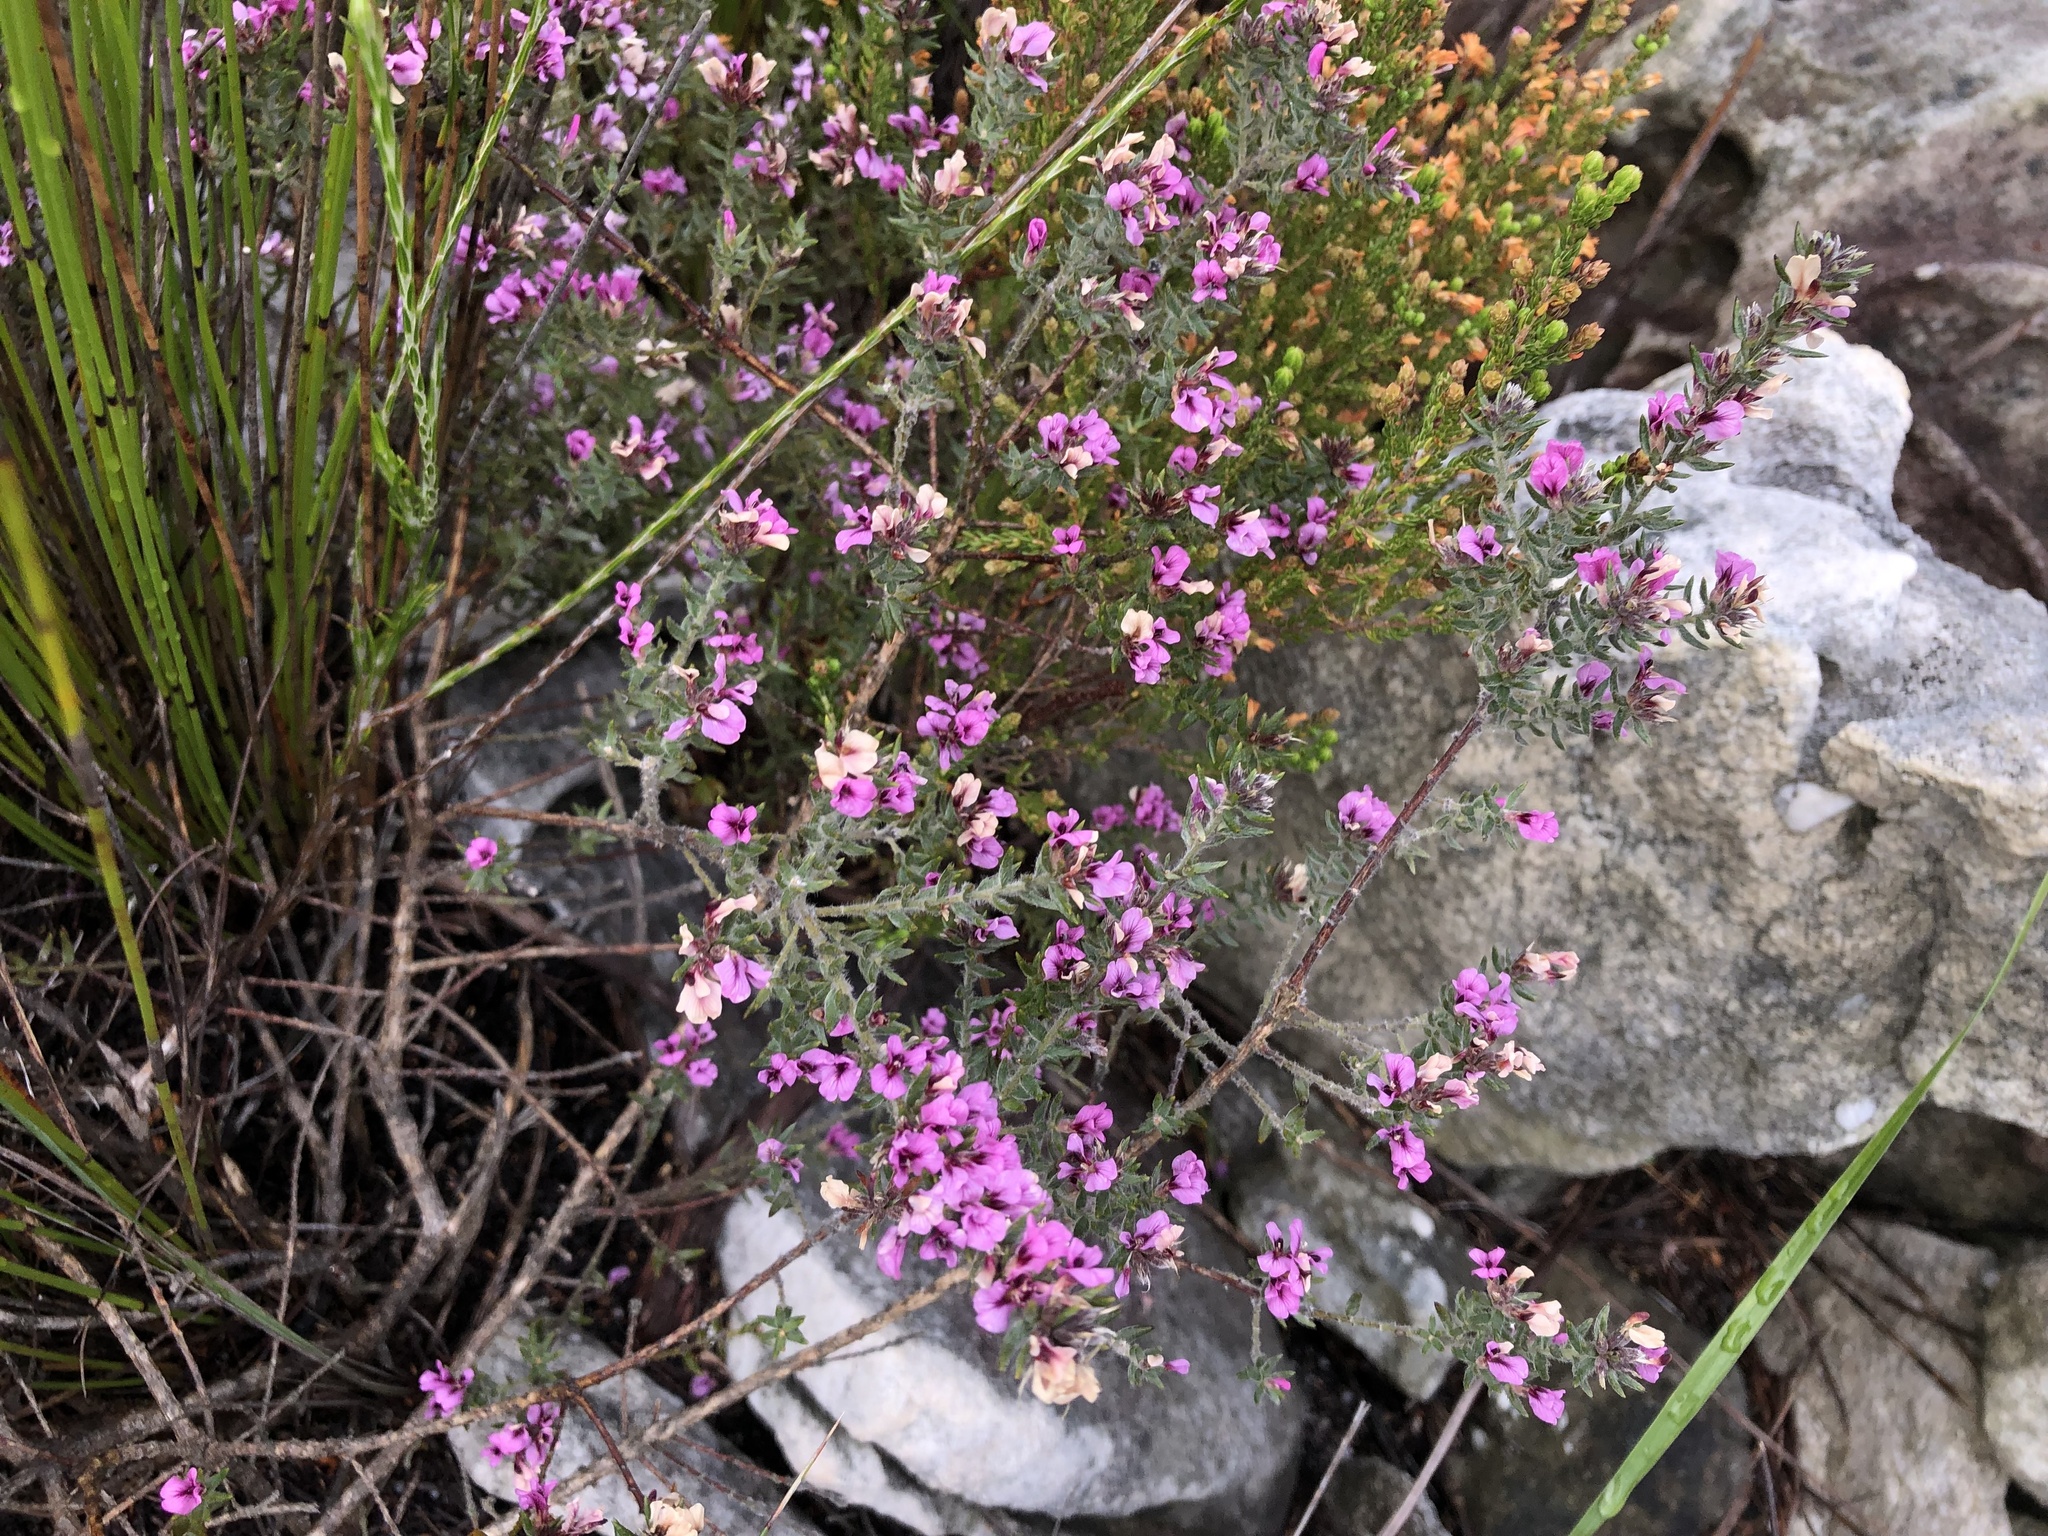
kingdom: Plantae
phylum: Tracheophyta
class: Magnoliopsida
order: Fabales
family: Fabaceae
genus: Amphithalea
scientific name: Amphithalea ericifolia
